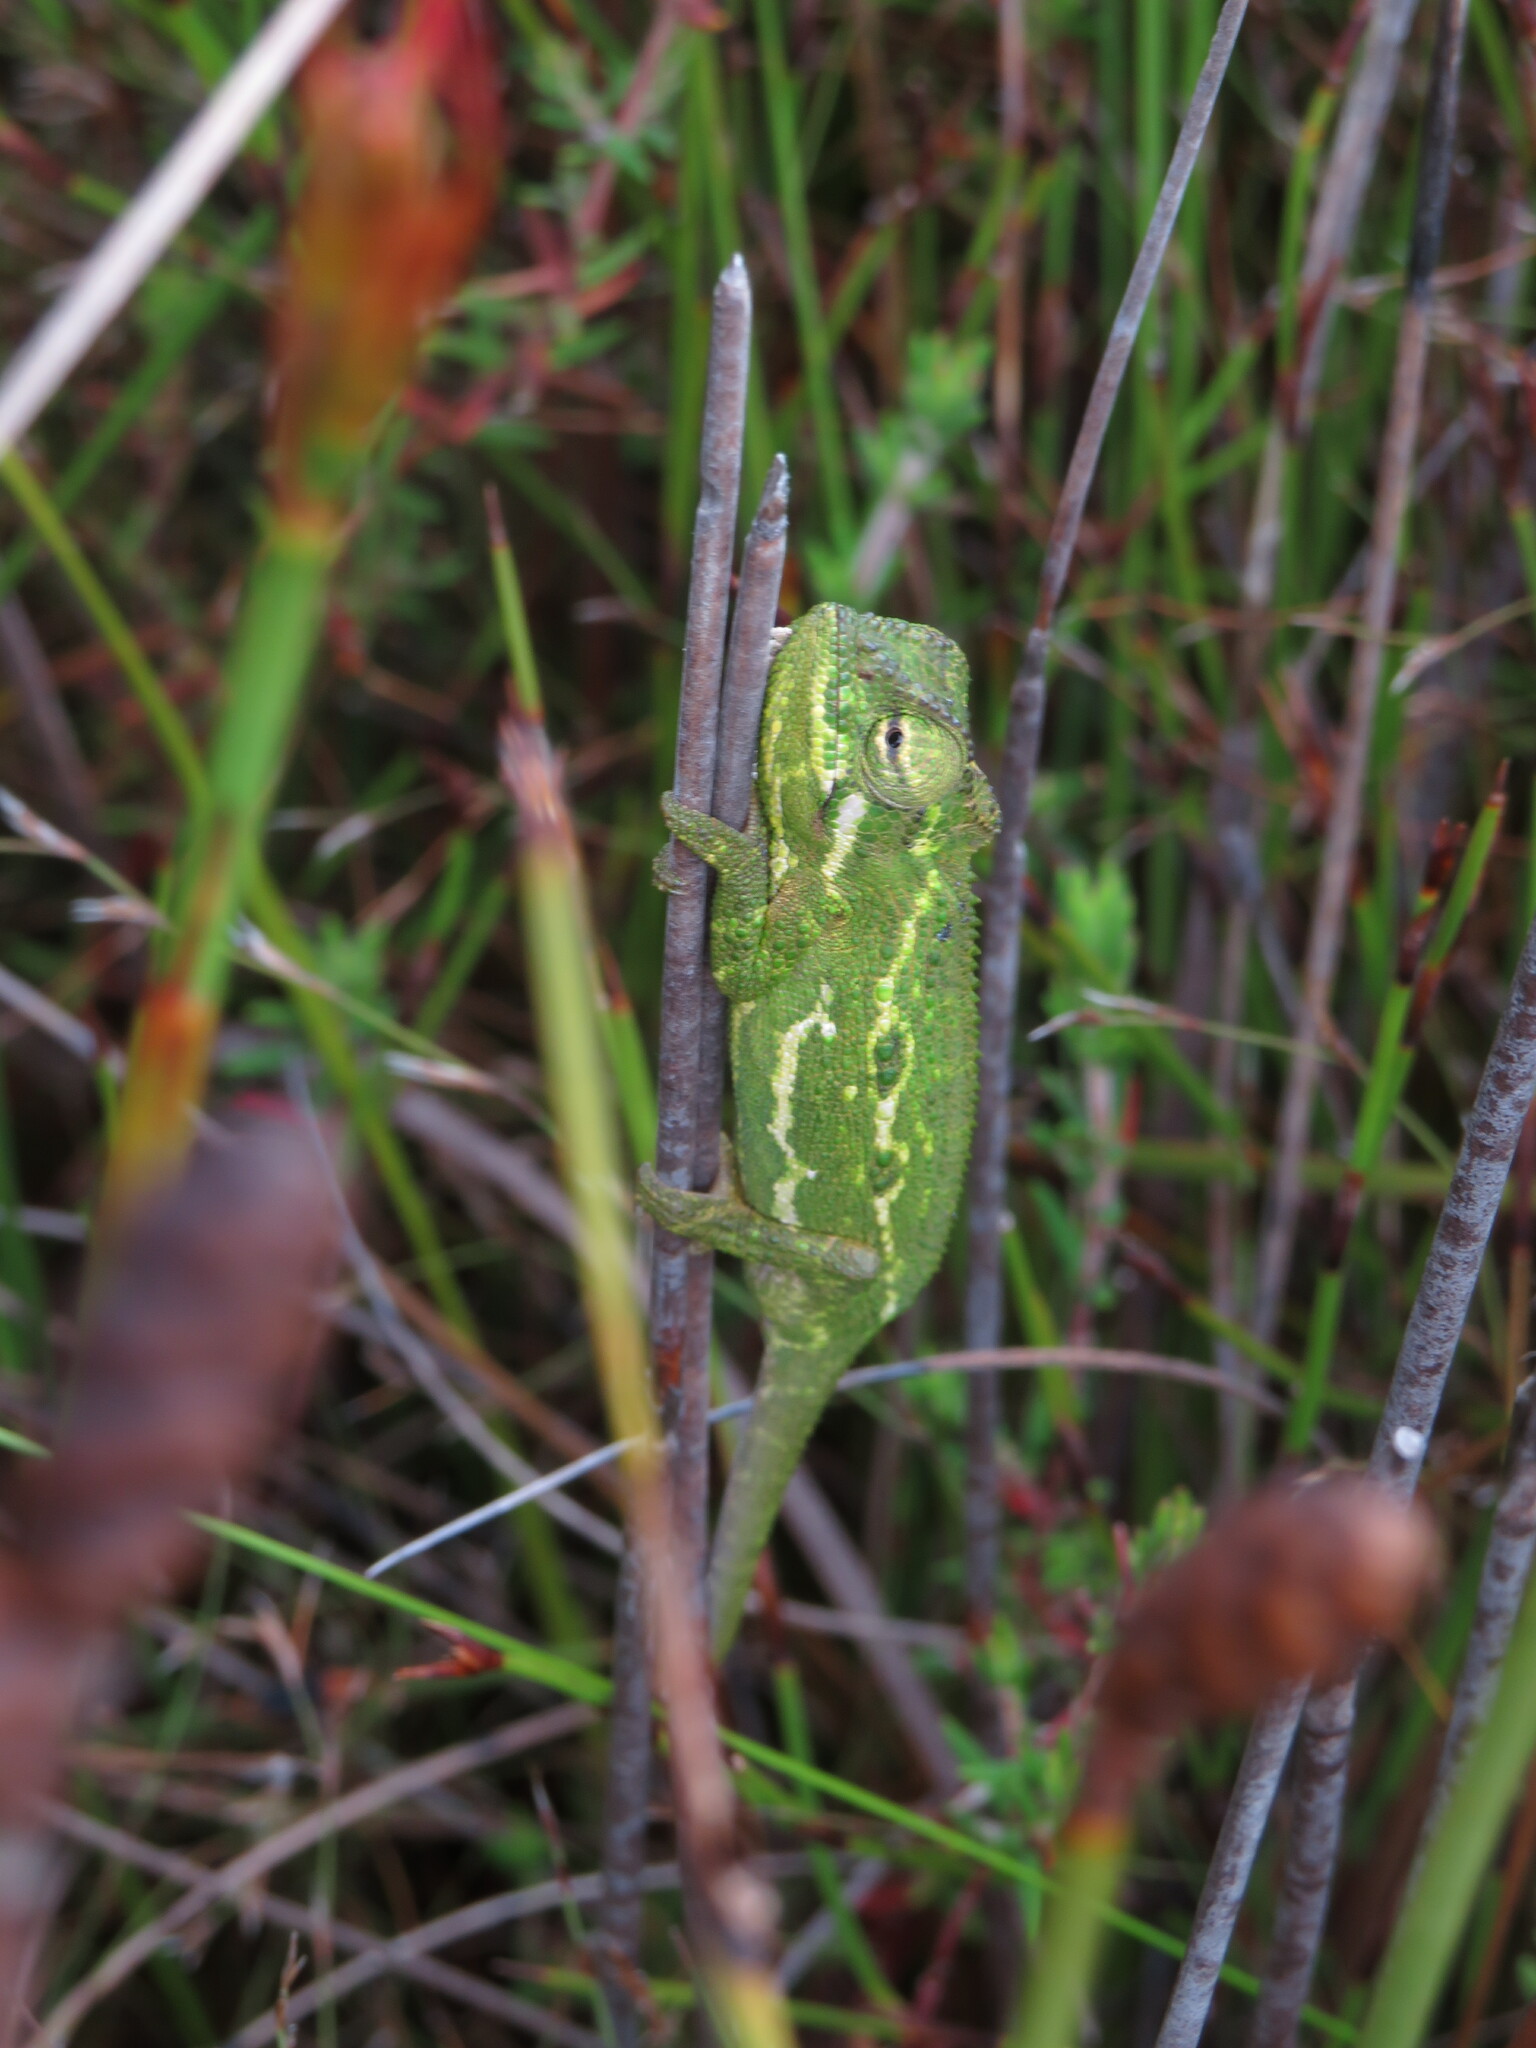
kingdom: Animalia
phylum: Chordata
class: Squamata
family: Chamaeleonidae
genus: Bradypodion
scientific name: Bradypodion pumilum
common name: Cape dwarf chameleon
